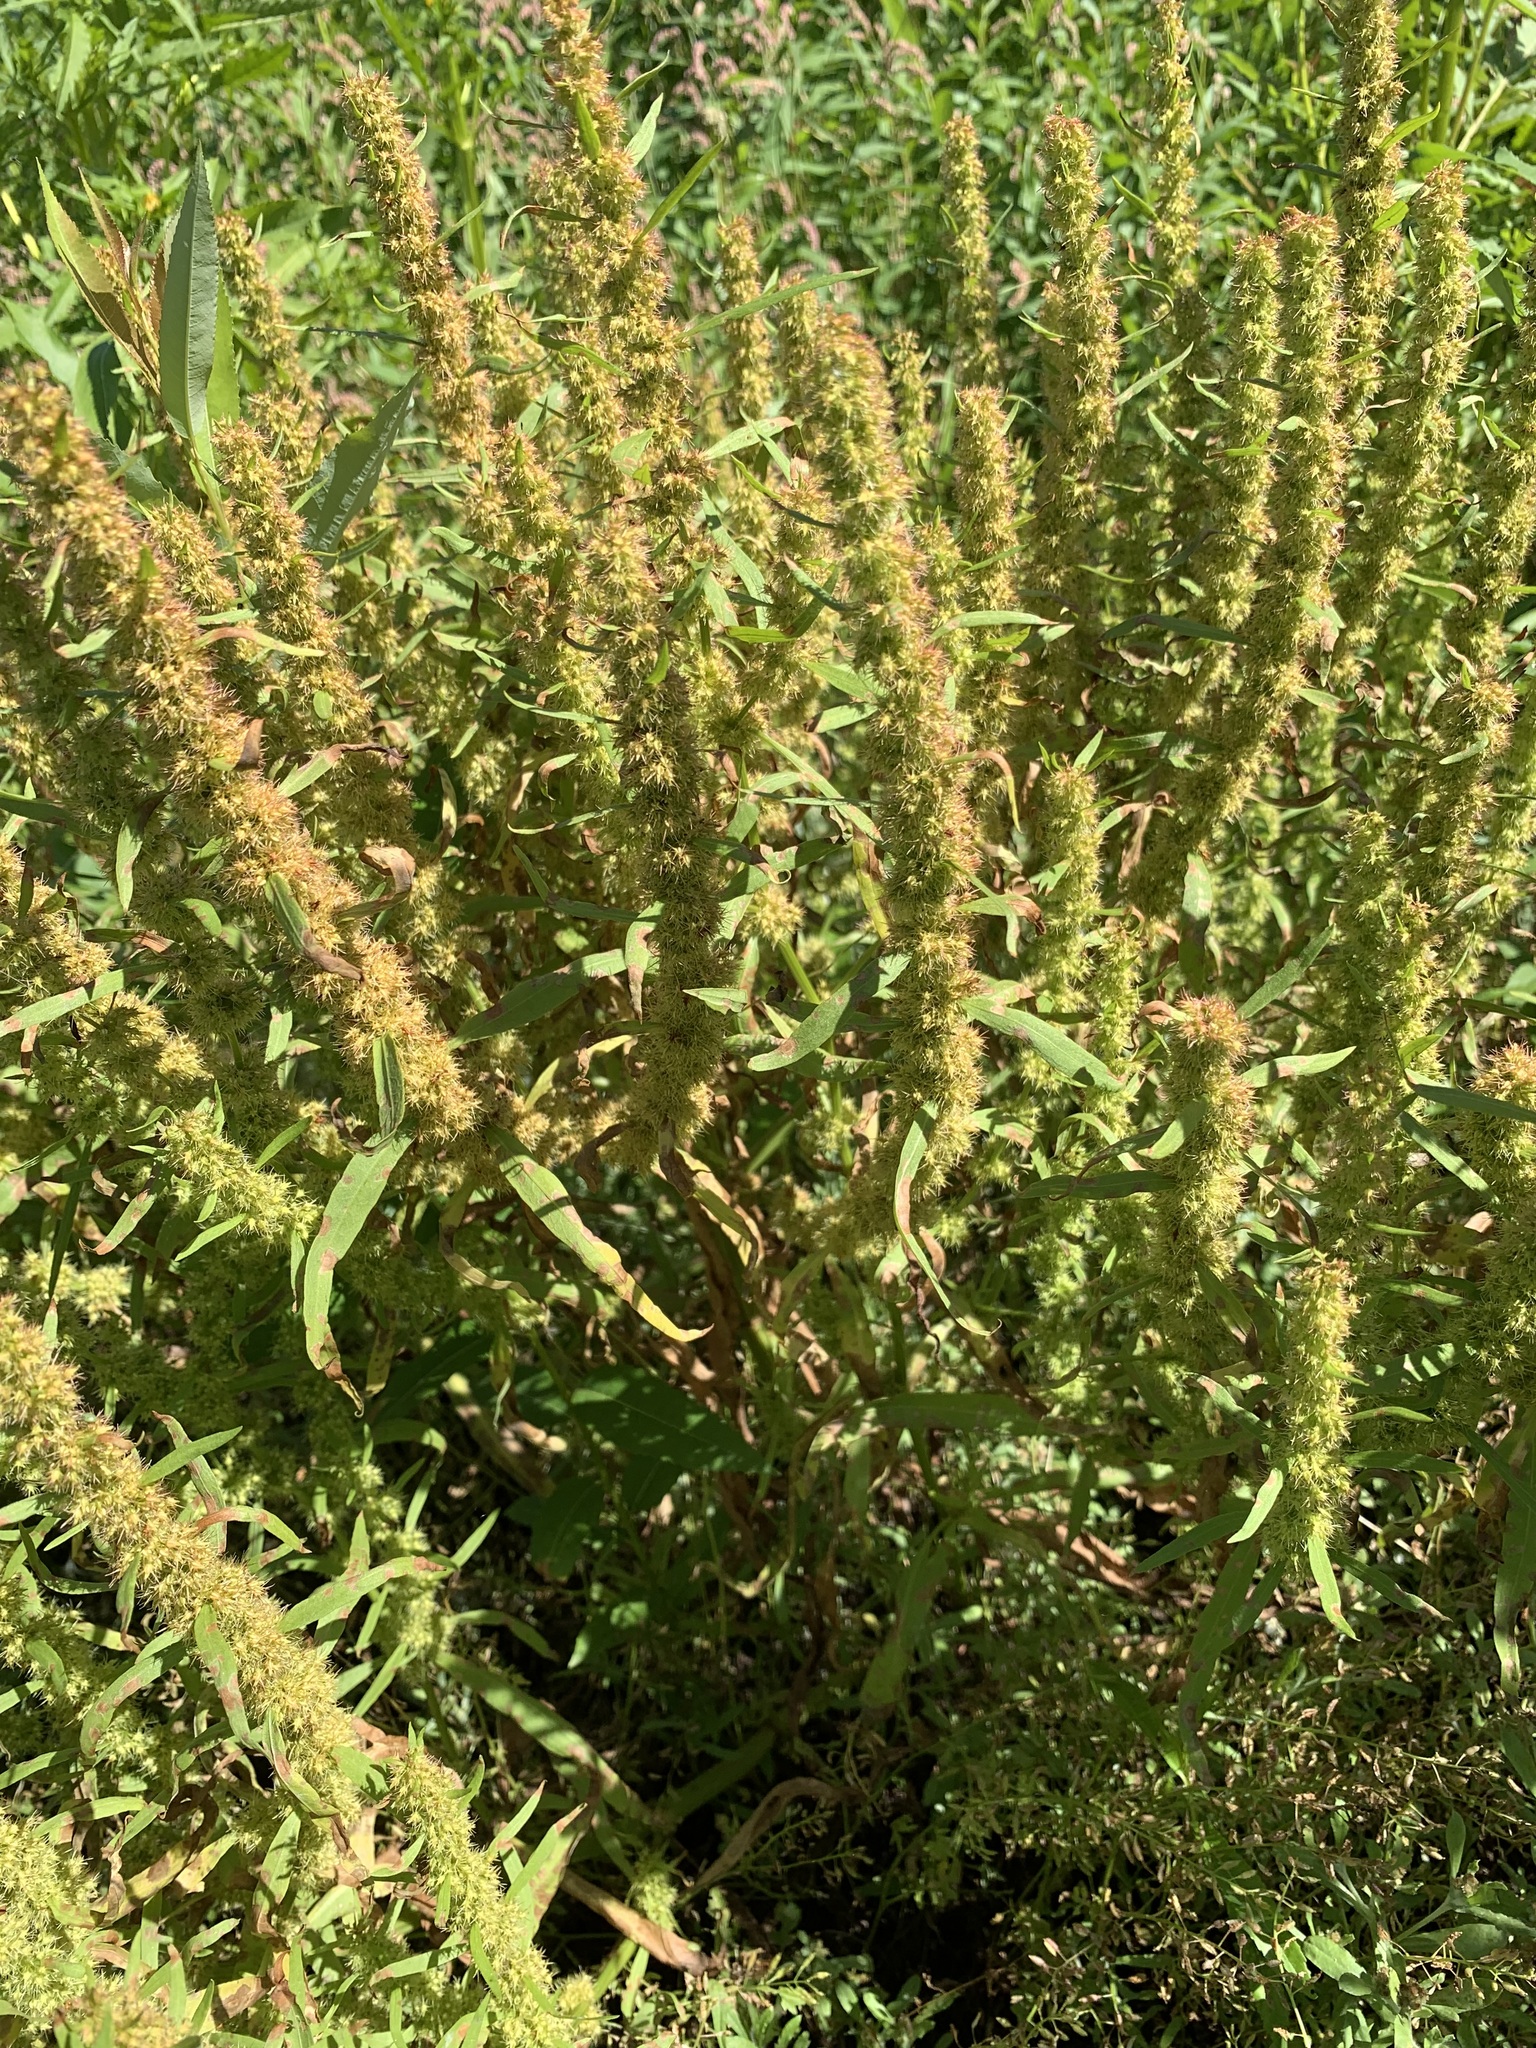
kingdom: Plantae
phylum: Tracheophyta
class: Magnoliopsida
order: Caryophyllales
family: Polygonaceae
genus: Rumex
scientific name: Rumex maritimus
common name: Golden dock
